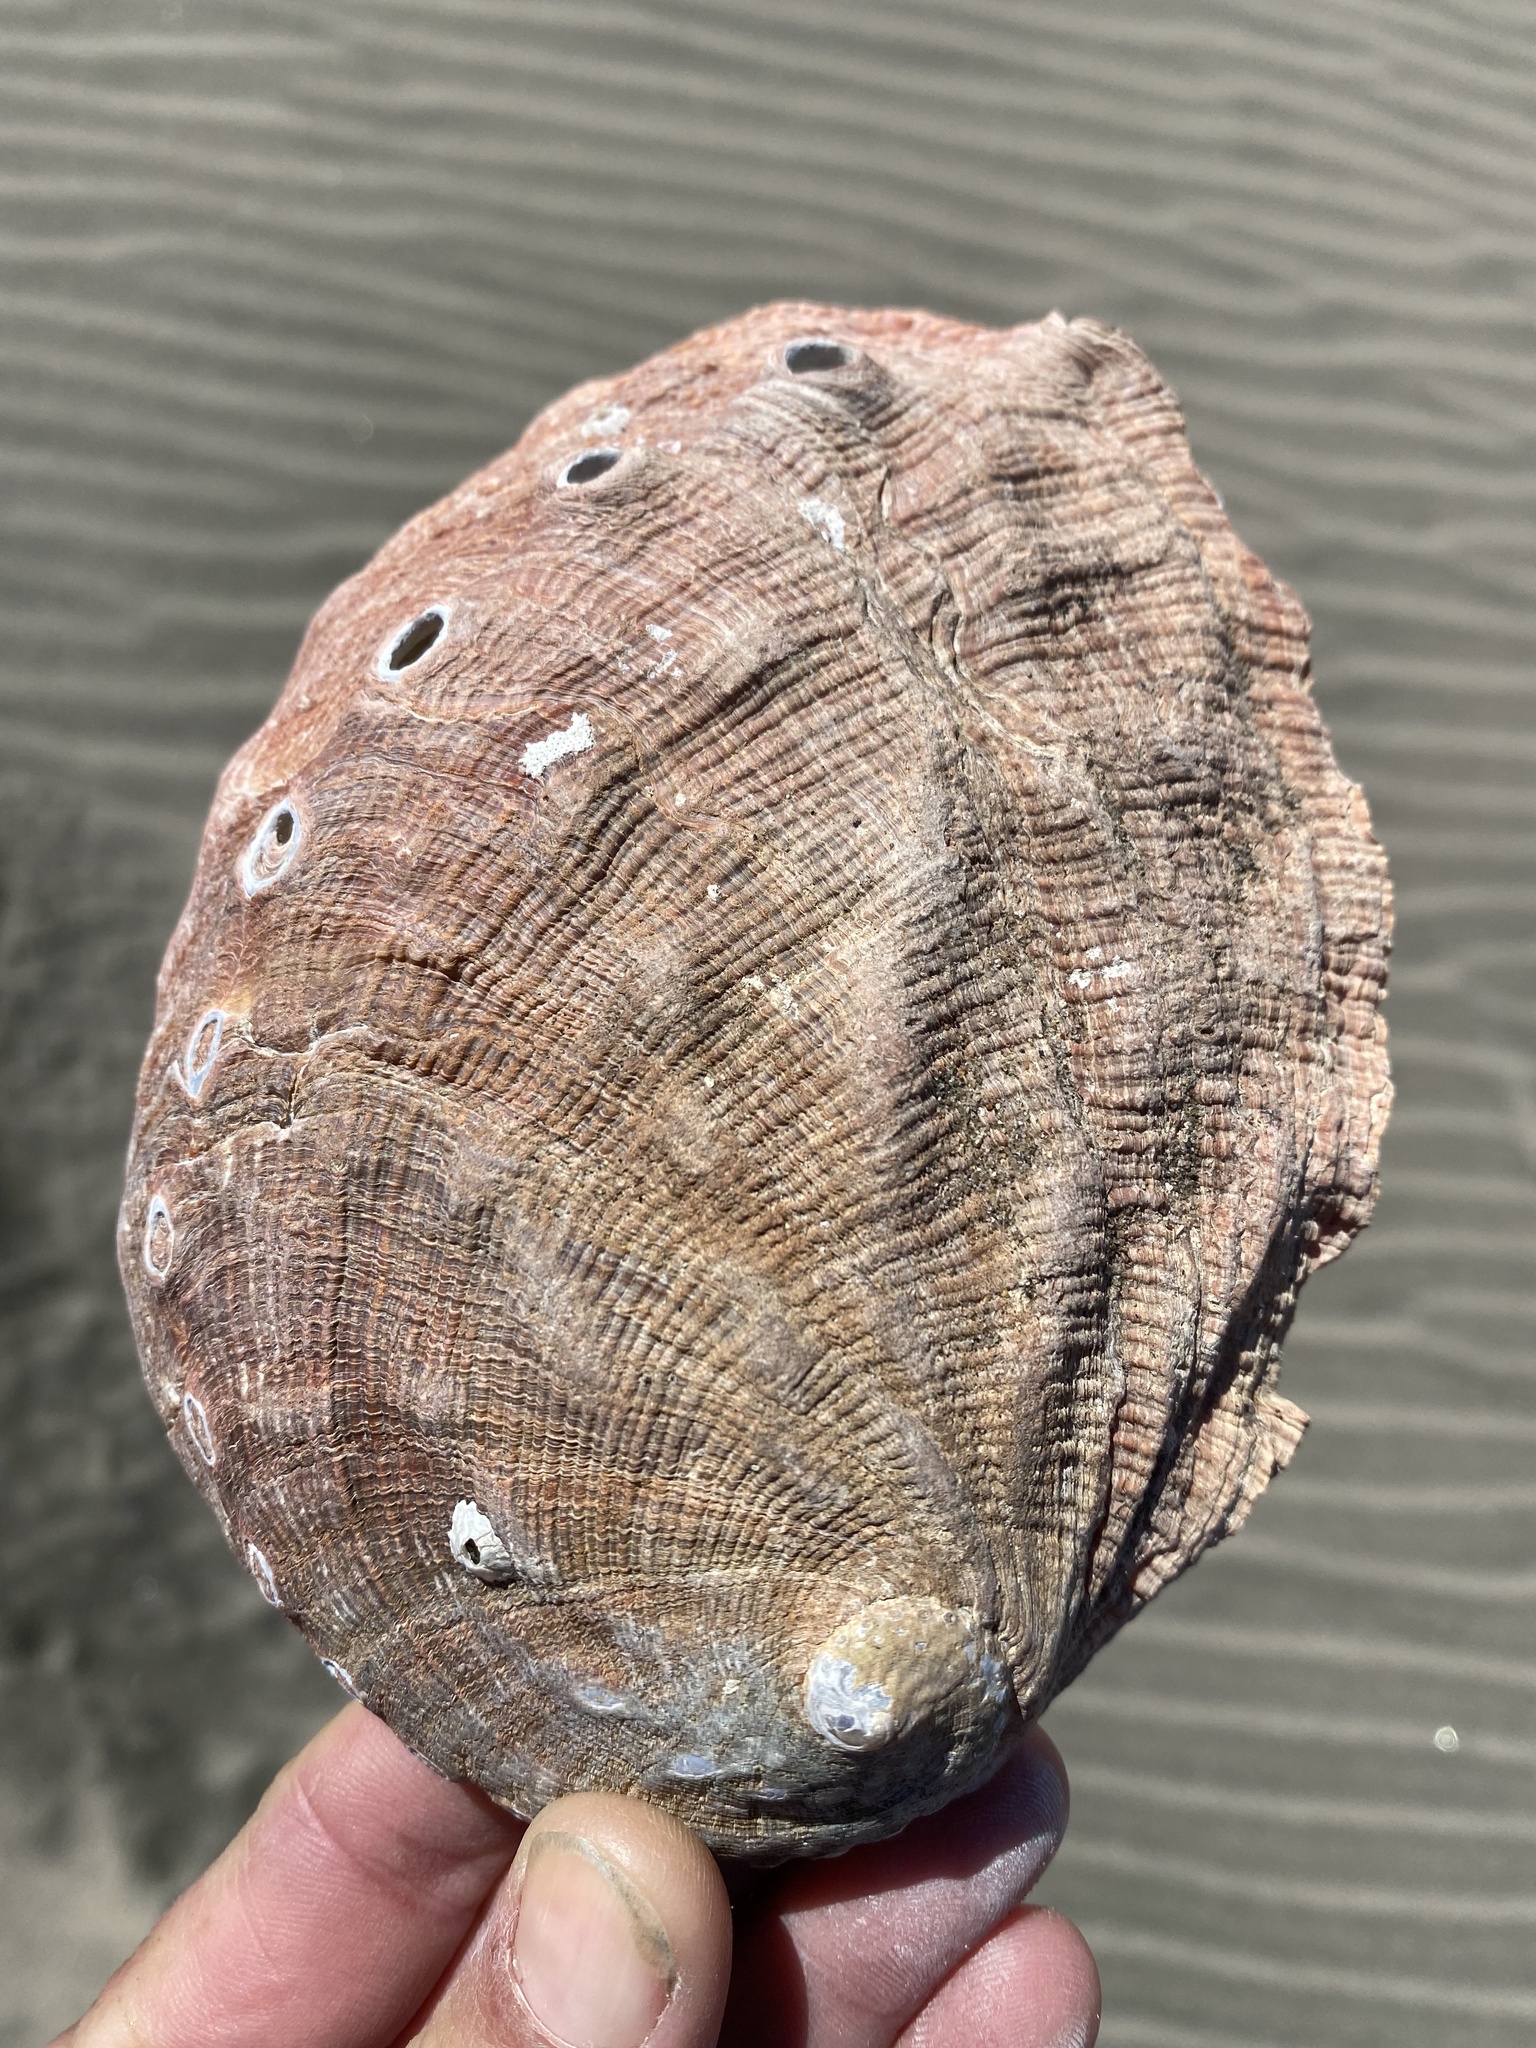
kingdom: Animalia
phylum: Mollusca
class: Gastropoda
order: Lepetellida
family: Haliotidae
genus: Haliotis
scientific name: Haliotis rufescens
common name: Red abalone
